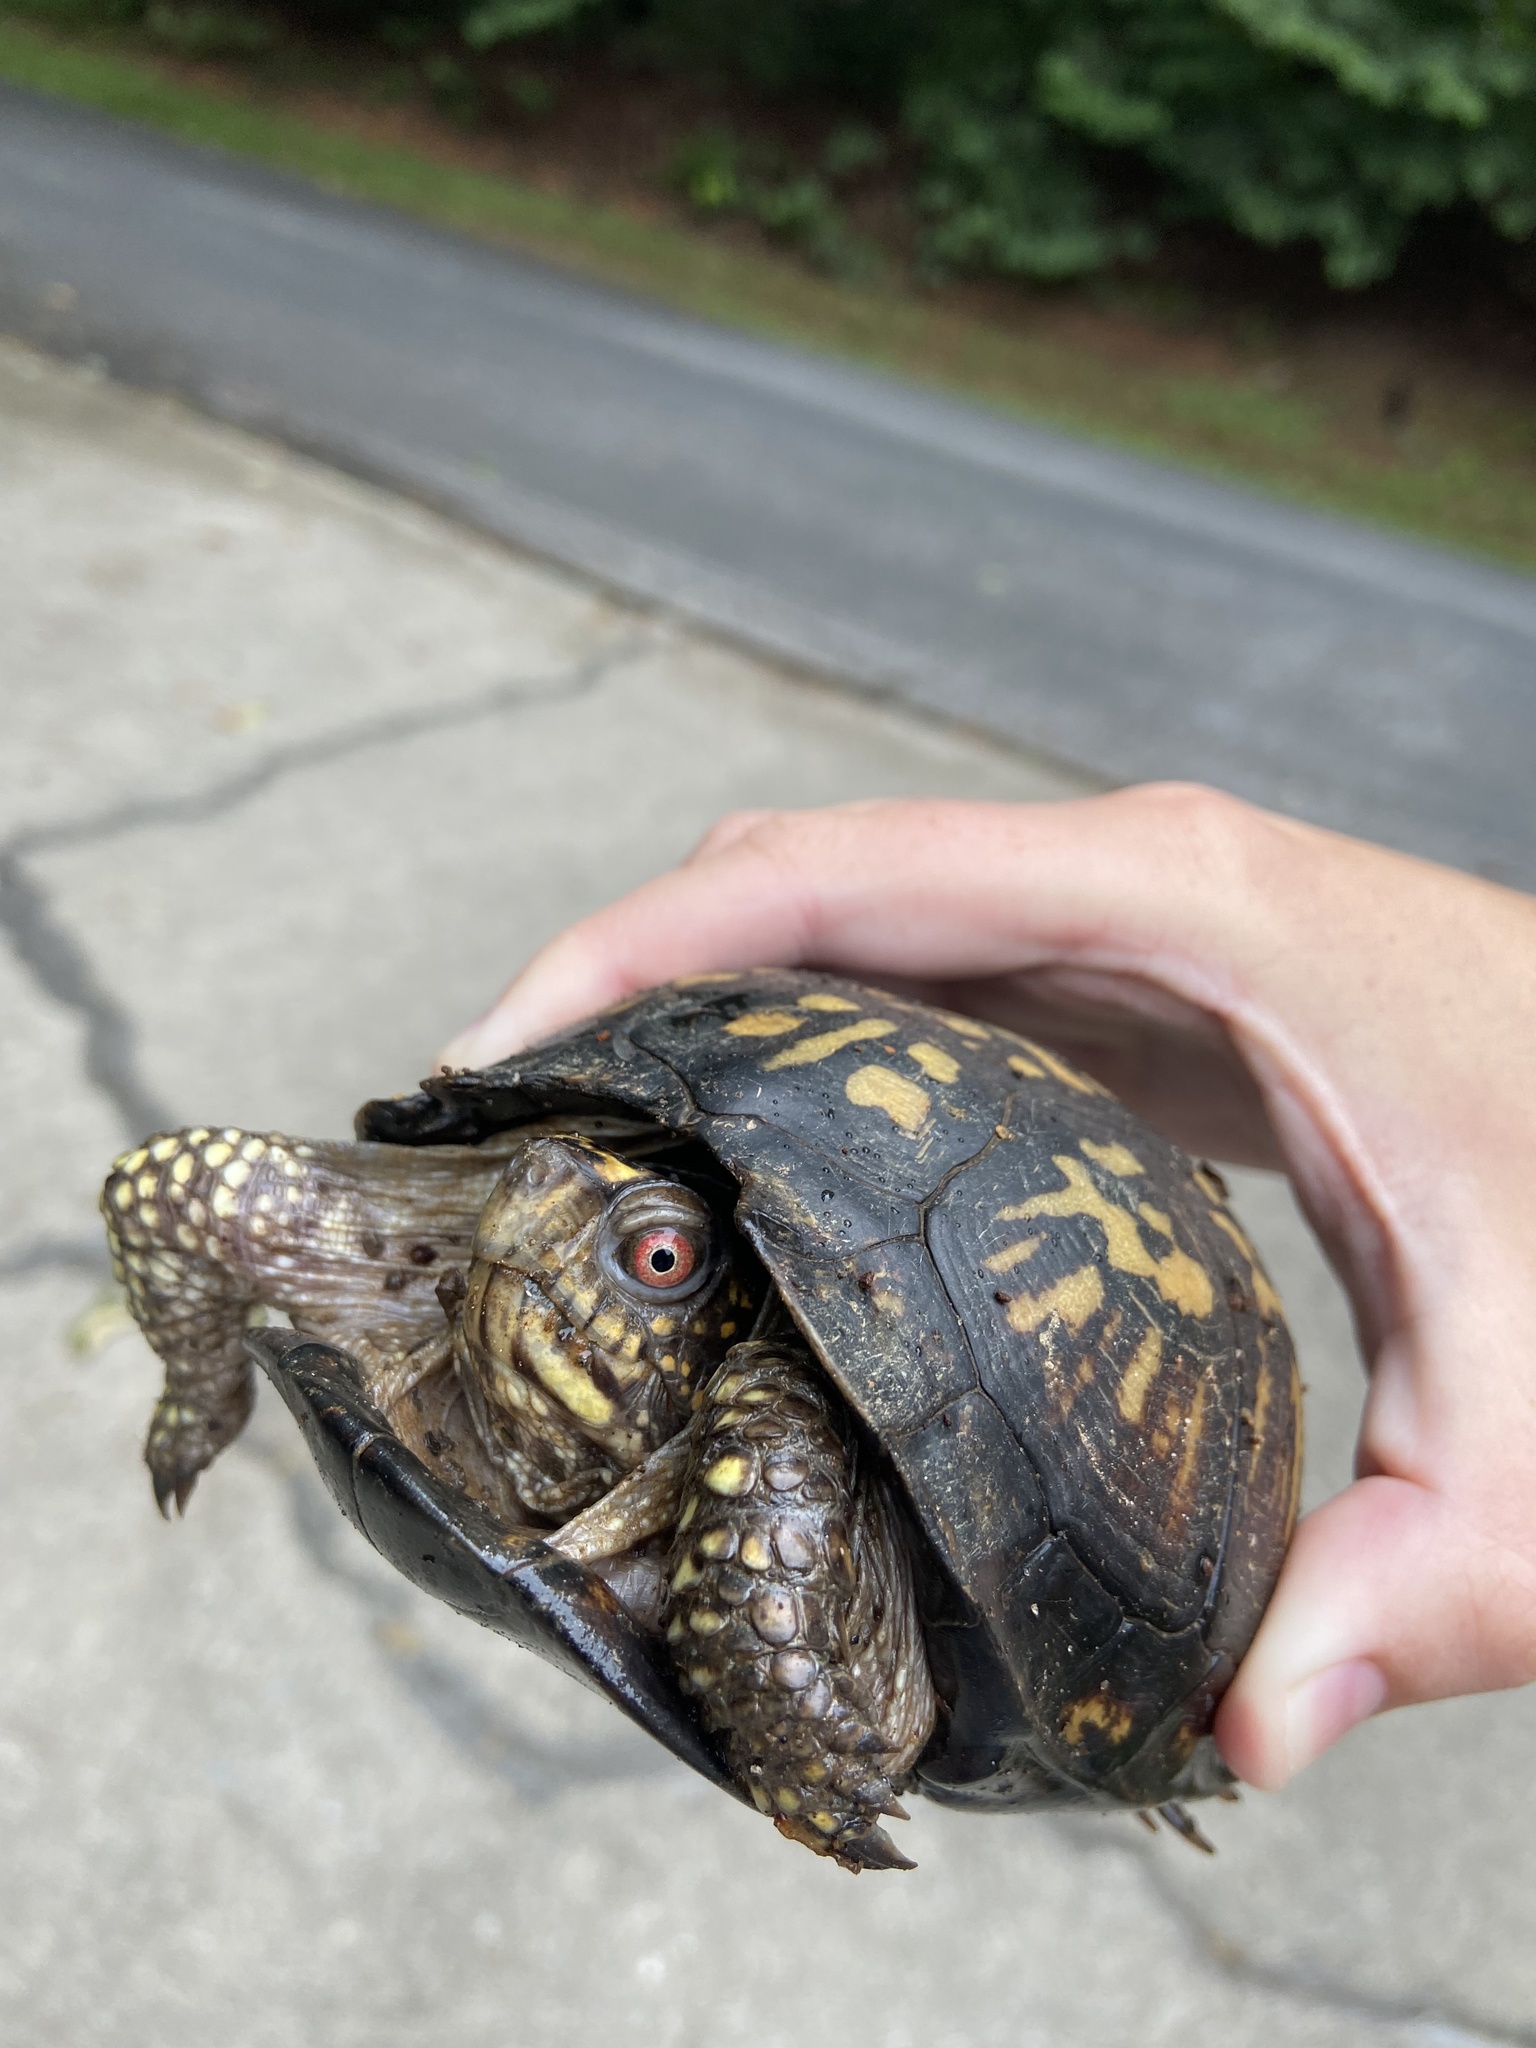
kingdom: Animalia
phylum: Chordata
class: Testudines
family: Emydidae
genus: Terrapene
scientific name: Terrapene carolina
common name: Common box turtle
